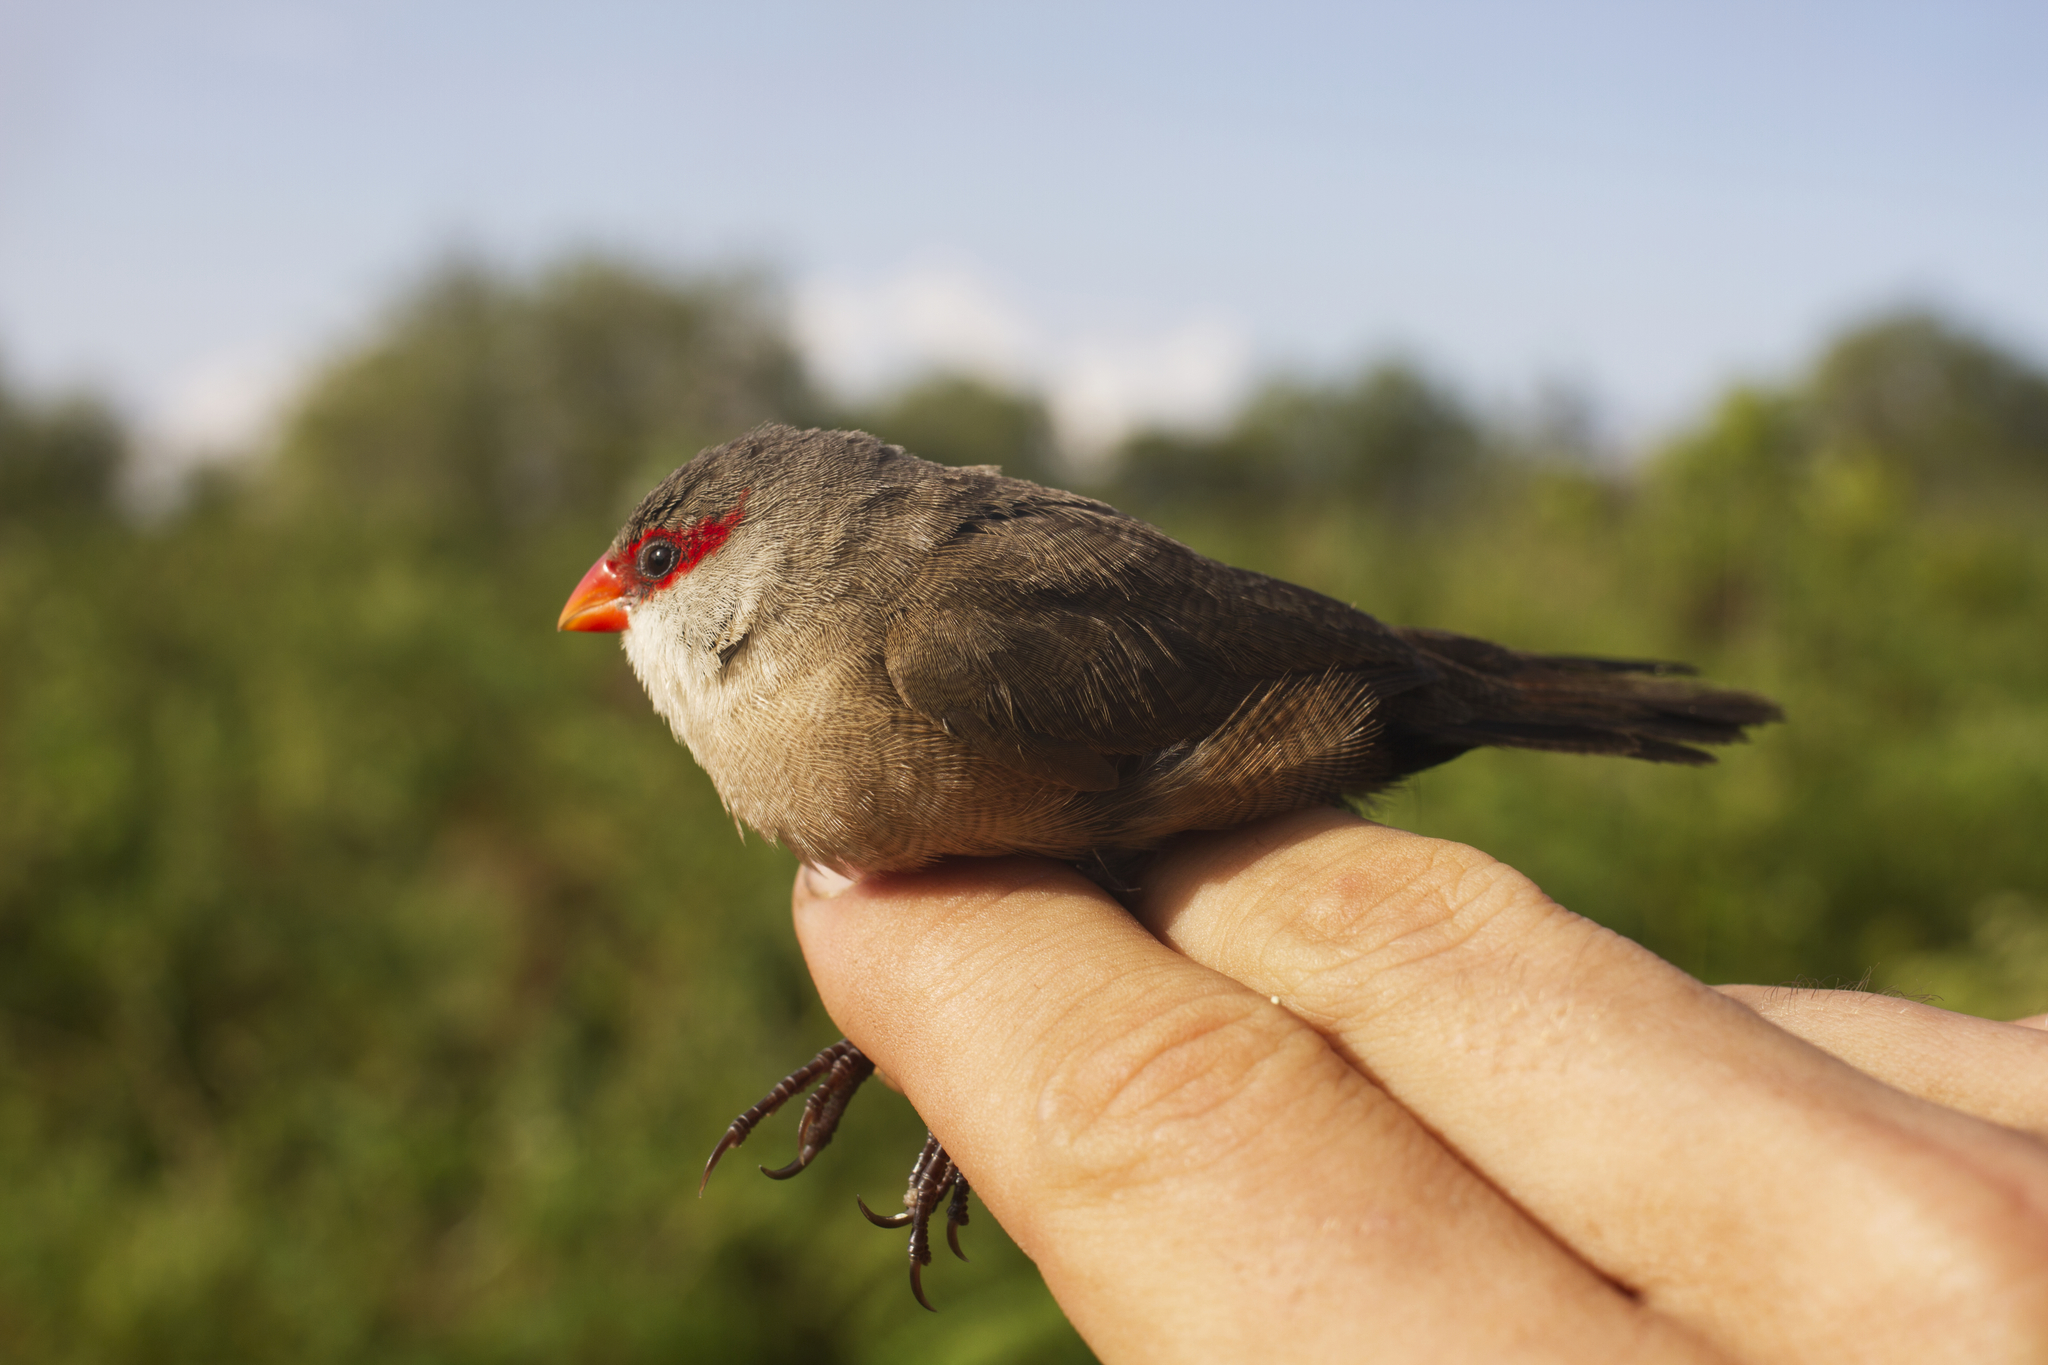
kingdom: Animalia
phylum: Chordata
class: Aves
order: Passeriformes
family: Estrildidae
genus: Estrilda
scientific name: Estrilda astrild
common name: Common waxbill
